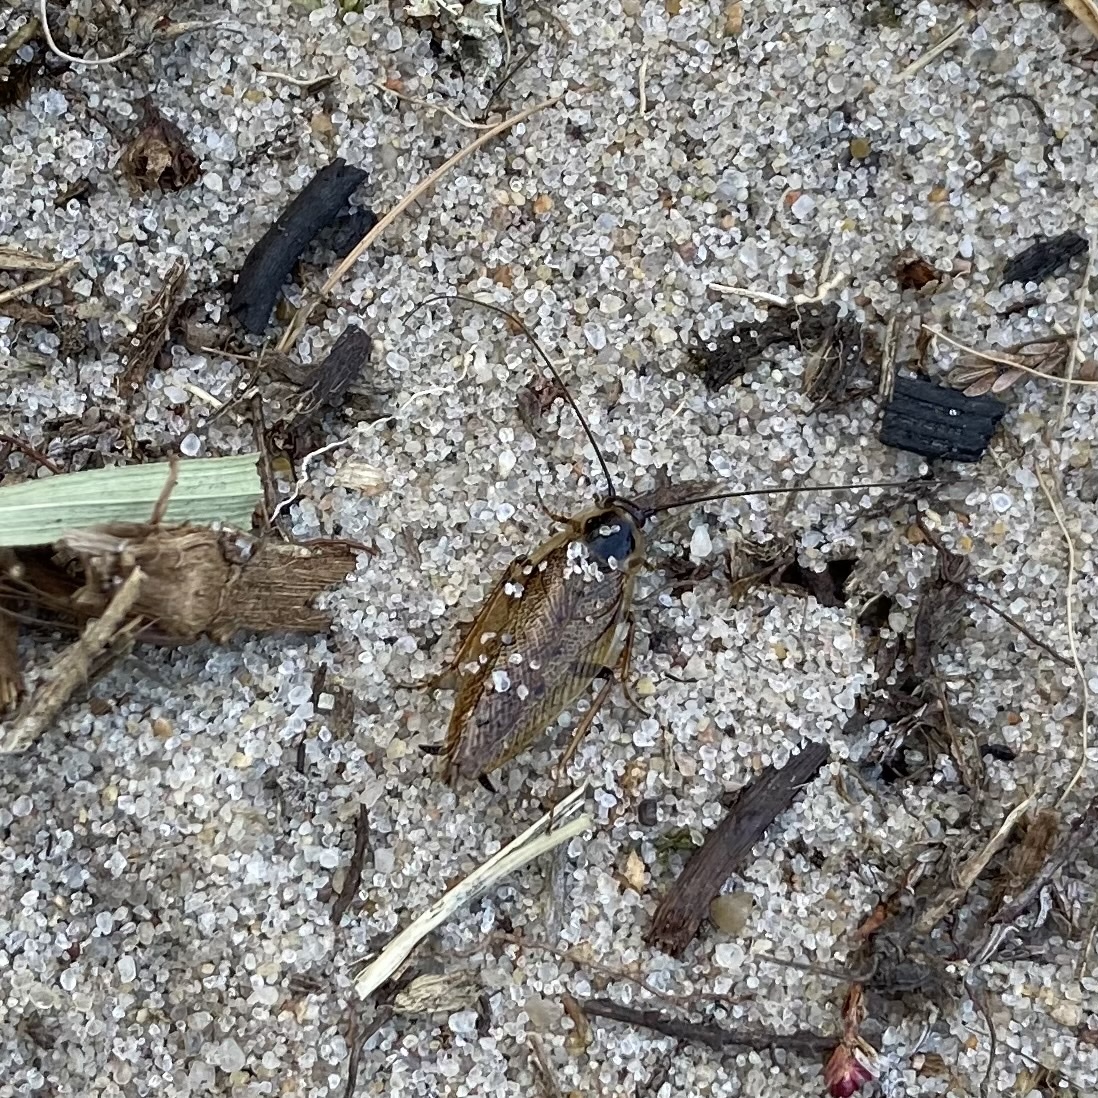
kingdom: Animalia
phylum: Arthropoda
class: Insecta
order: Blattodea
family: Ectobiidae
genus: Ectobius
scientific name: Ectobius lapponicus
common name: Dusky cockroach
